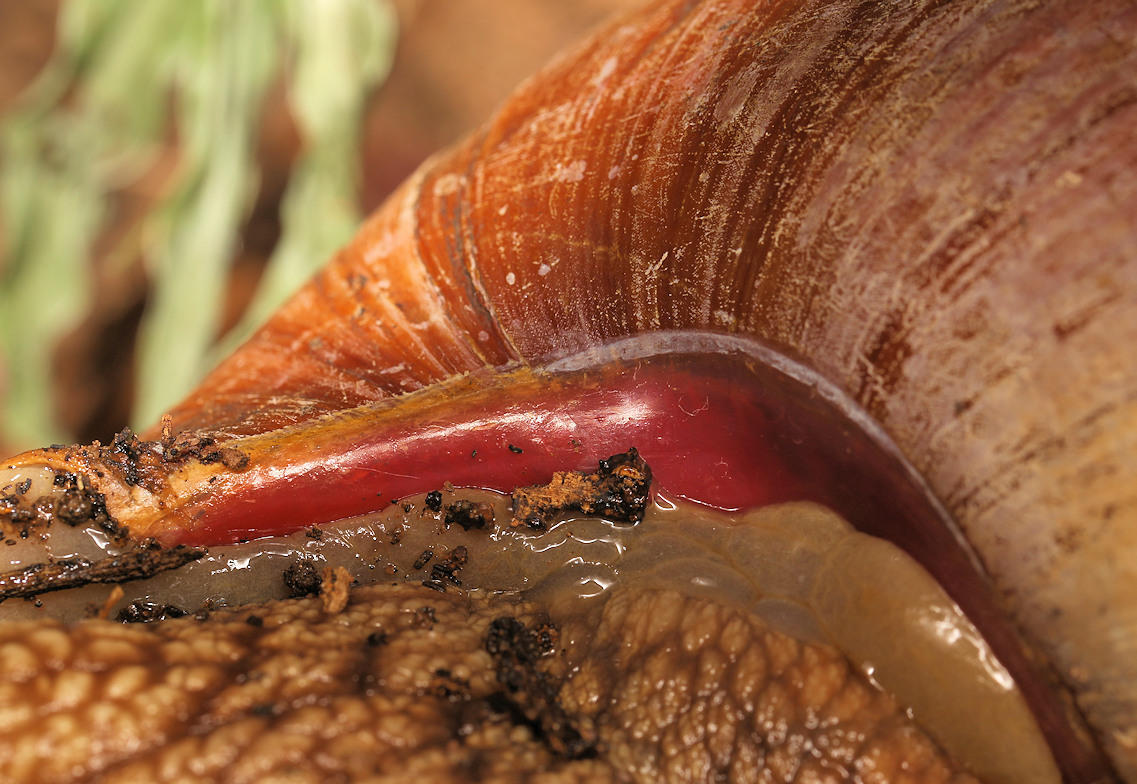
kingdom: Animalia
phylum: Mollusca
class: Gastropoda
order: Stylommatophora
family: Achatinidae
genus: Lissachatina
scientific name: Lissachatina immaculata
